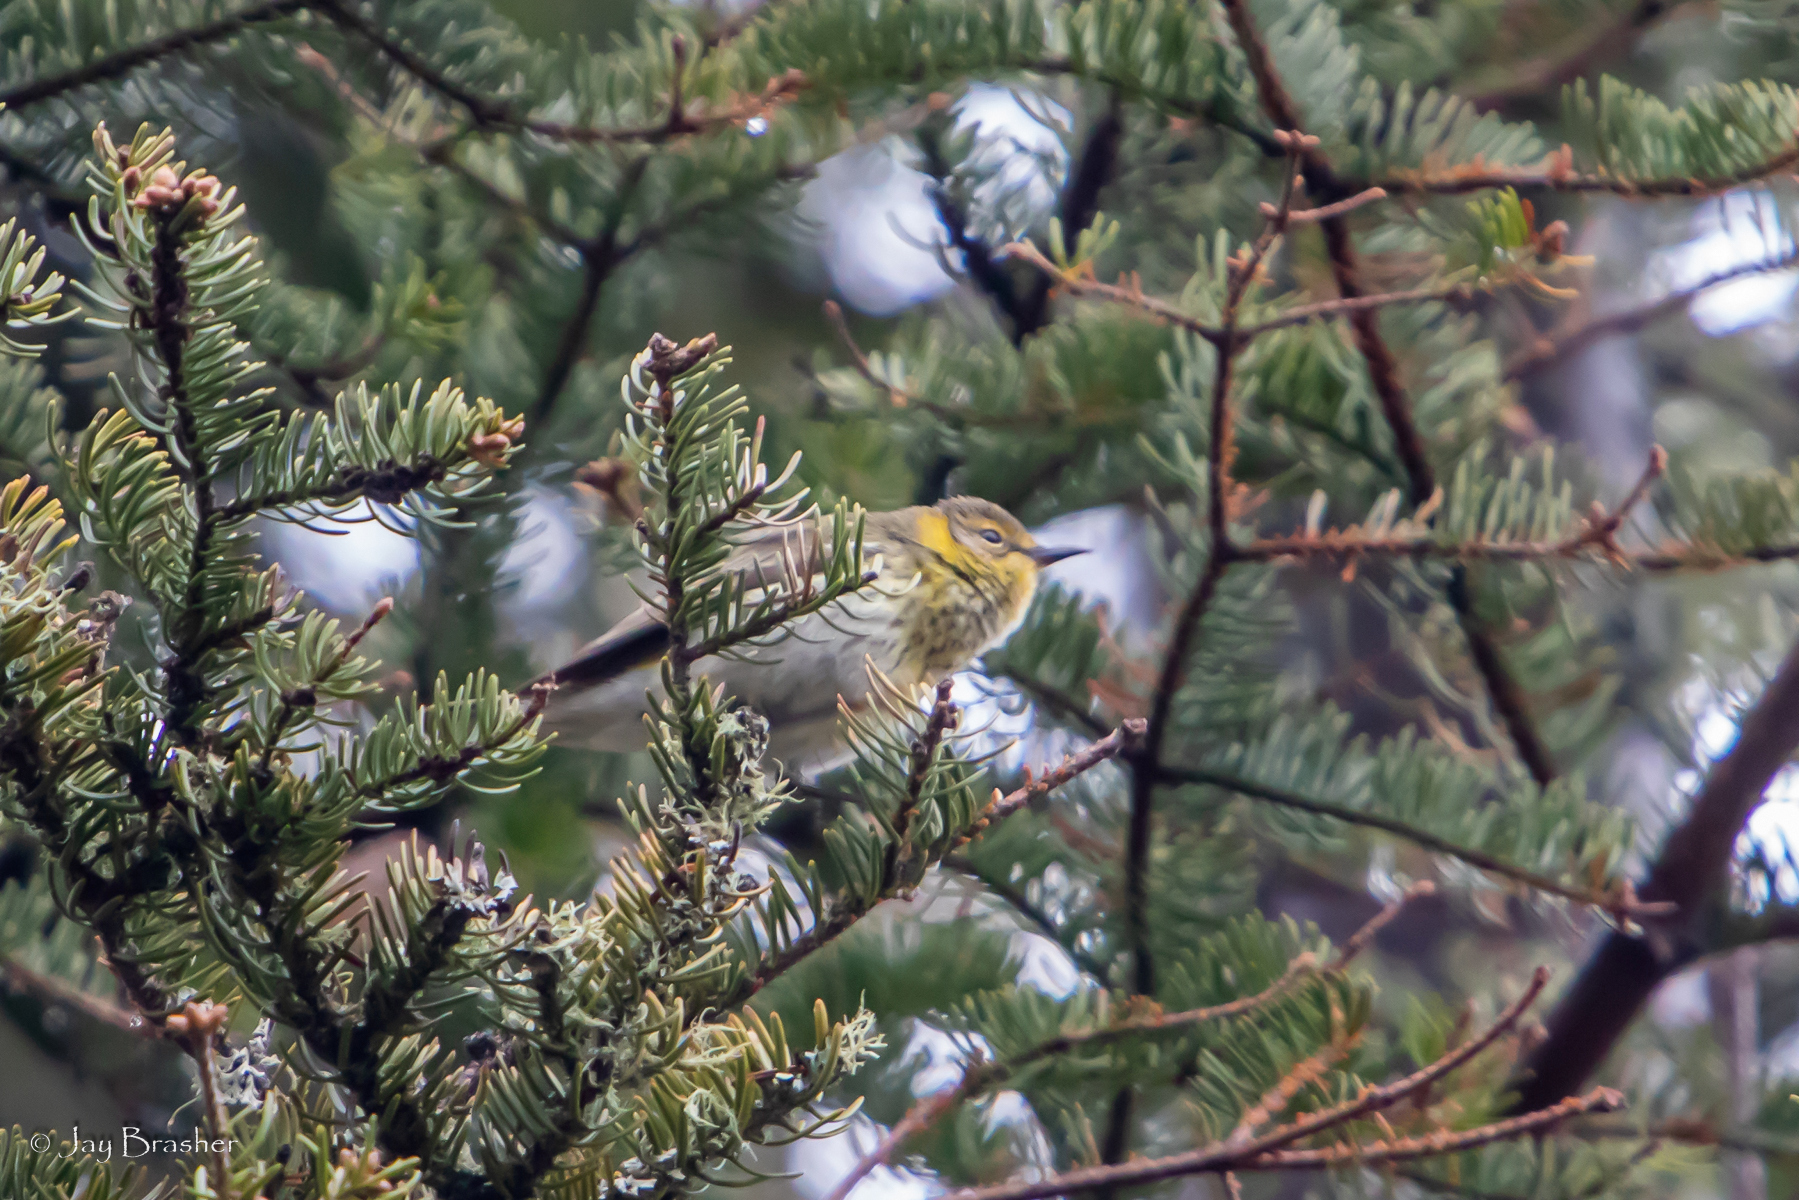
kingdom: Animalia
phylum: Chordata
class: Aves
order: Passeriformes
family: Parulidae
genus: Setophaga
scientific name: Setophaga tigrina
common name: Cape may warbler
